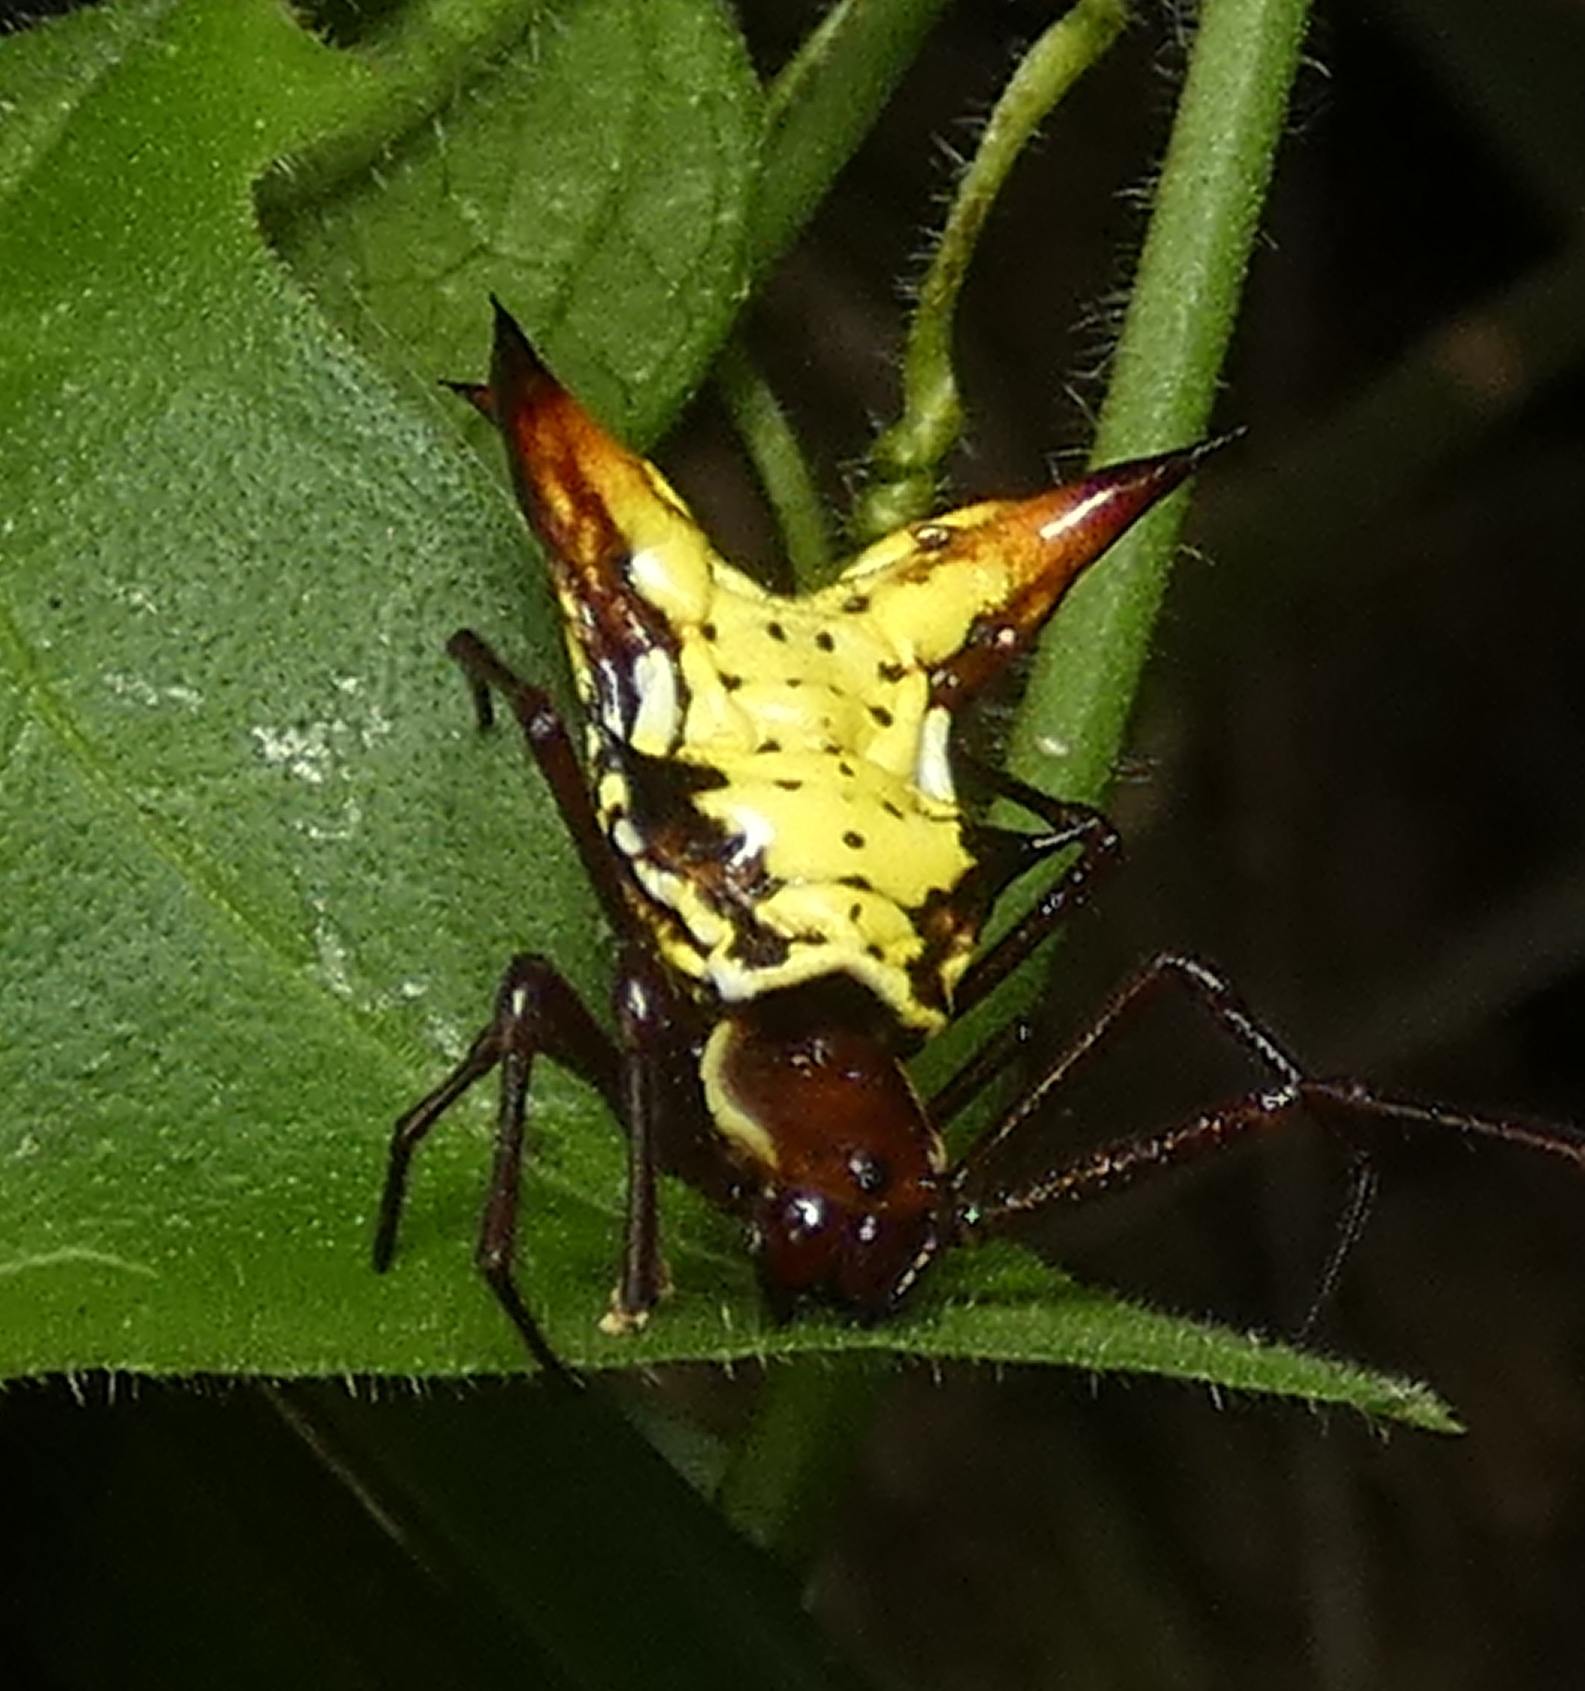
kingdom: Animalia
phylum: Arthropoda
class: Arachnida
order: Araneae
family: Araneidae
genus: Micrathena
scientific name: Micrathena fissispina
